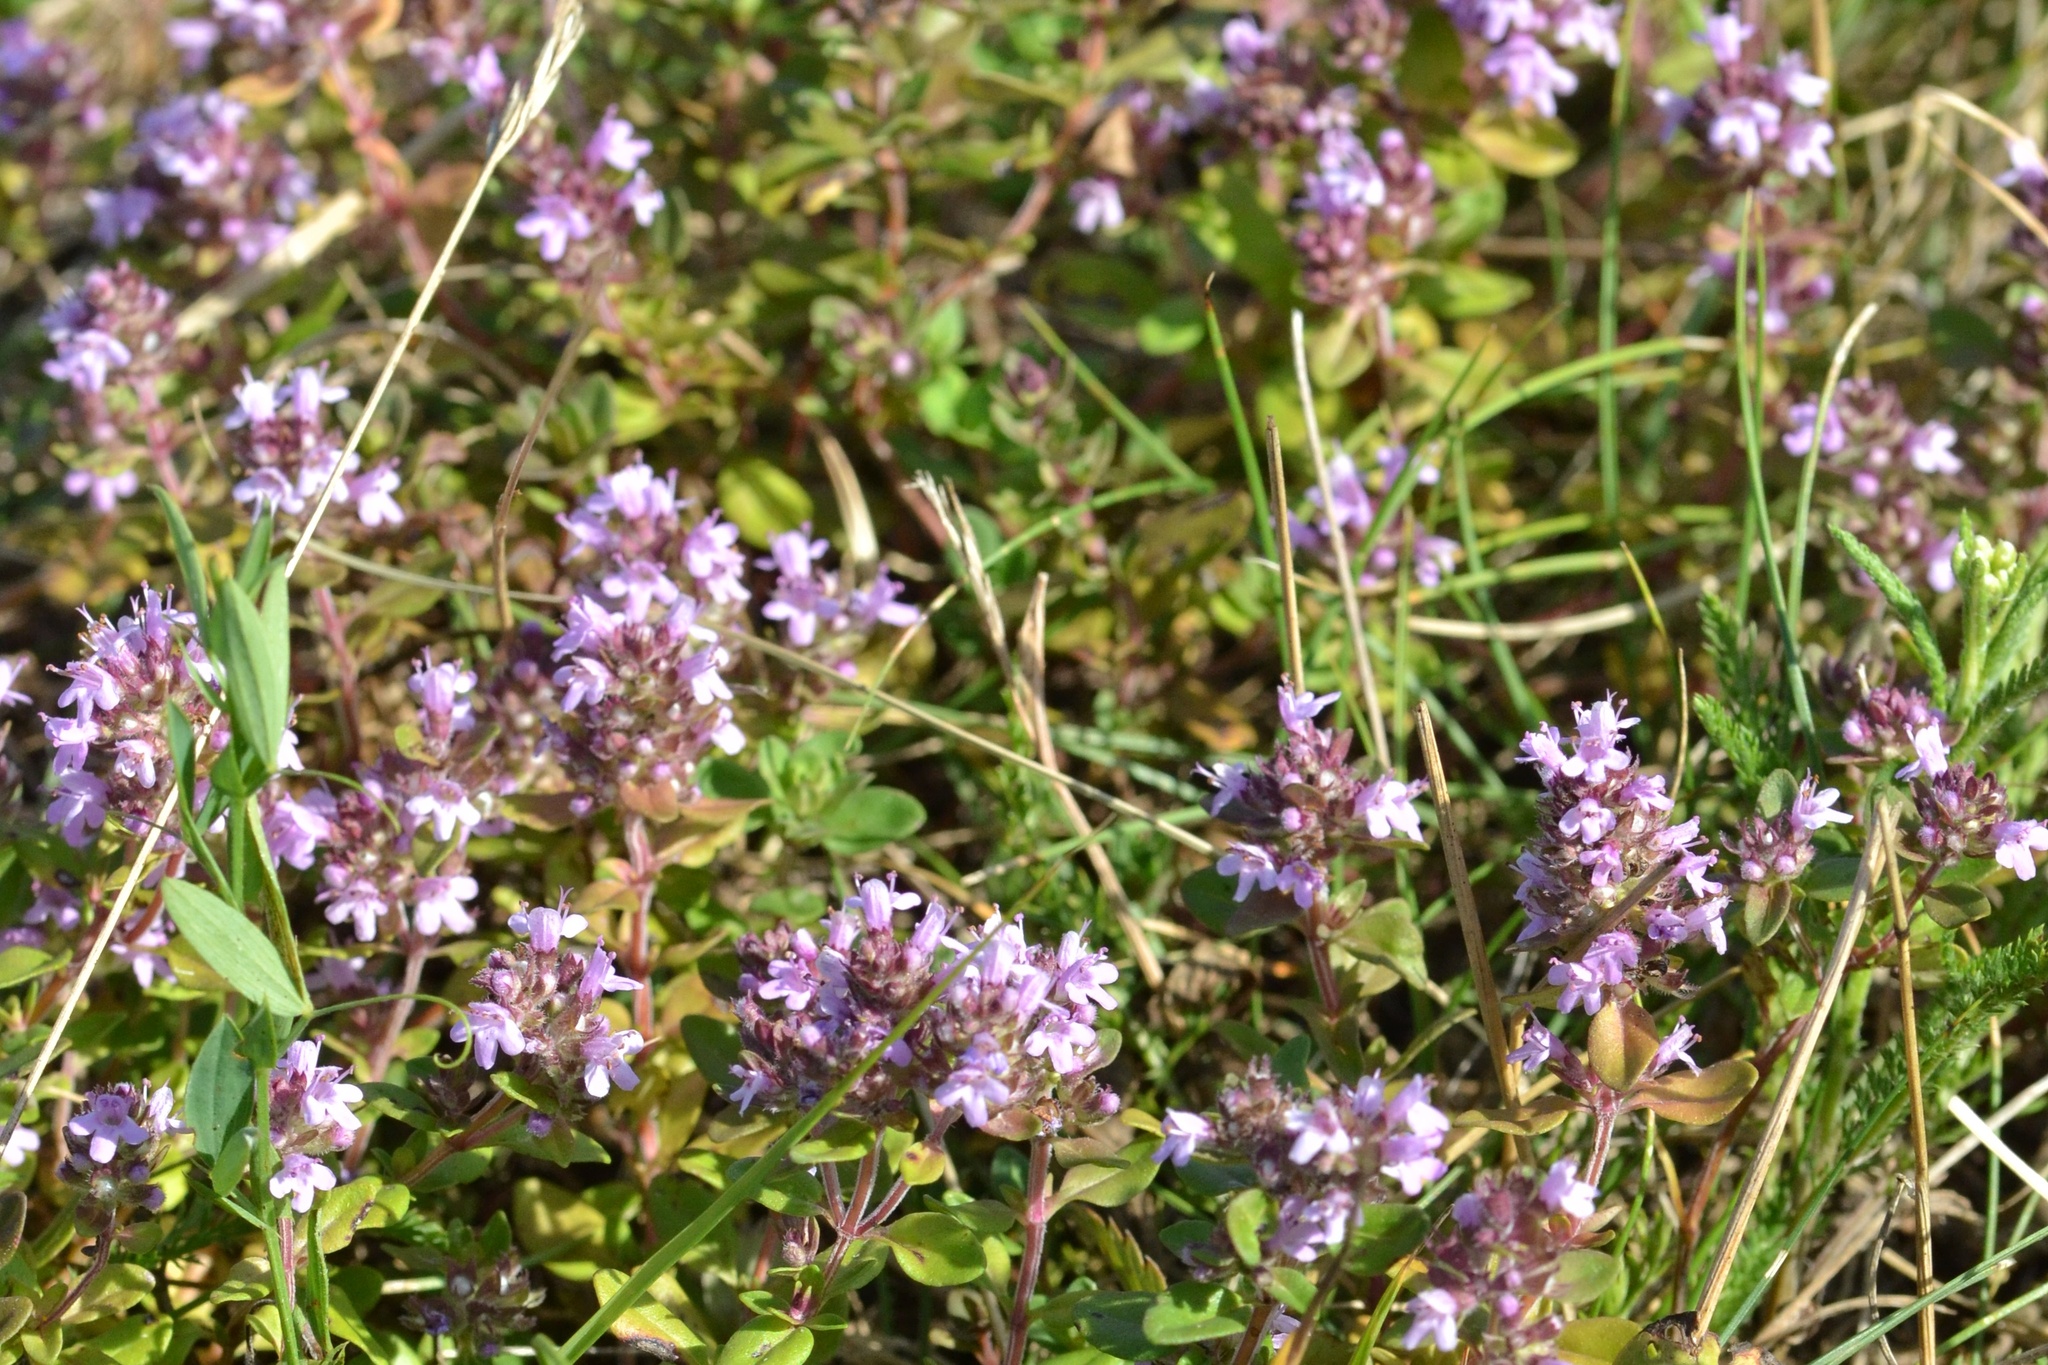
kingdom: Plantae
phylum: Tracheophyta
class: Magnoliopsida
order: Lamiales
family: Lamiaceae
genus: Thymus
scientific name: Thymus pulegioides
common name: Large thyme
